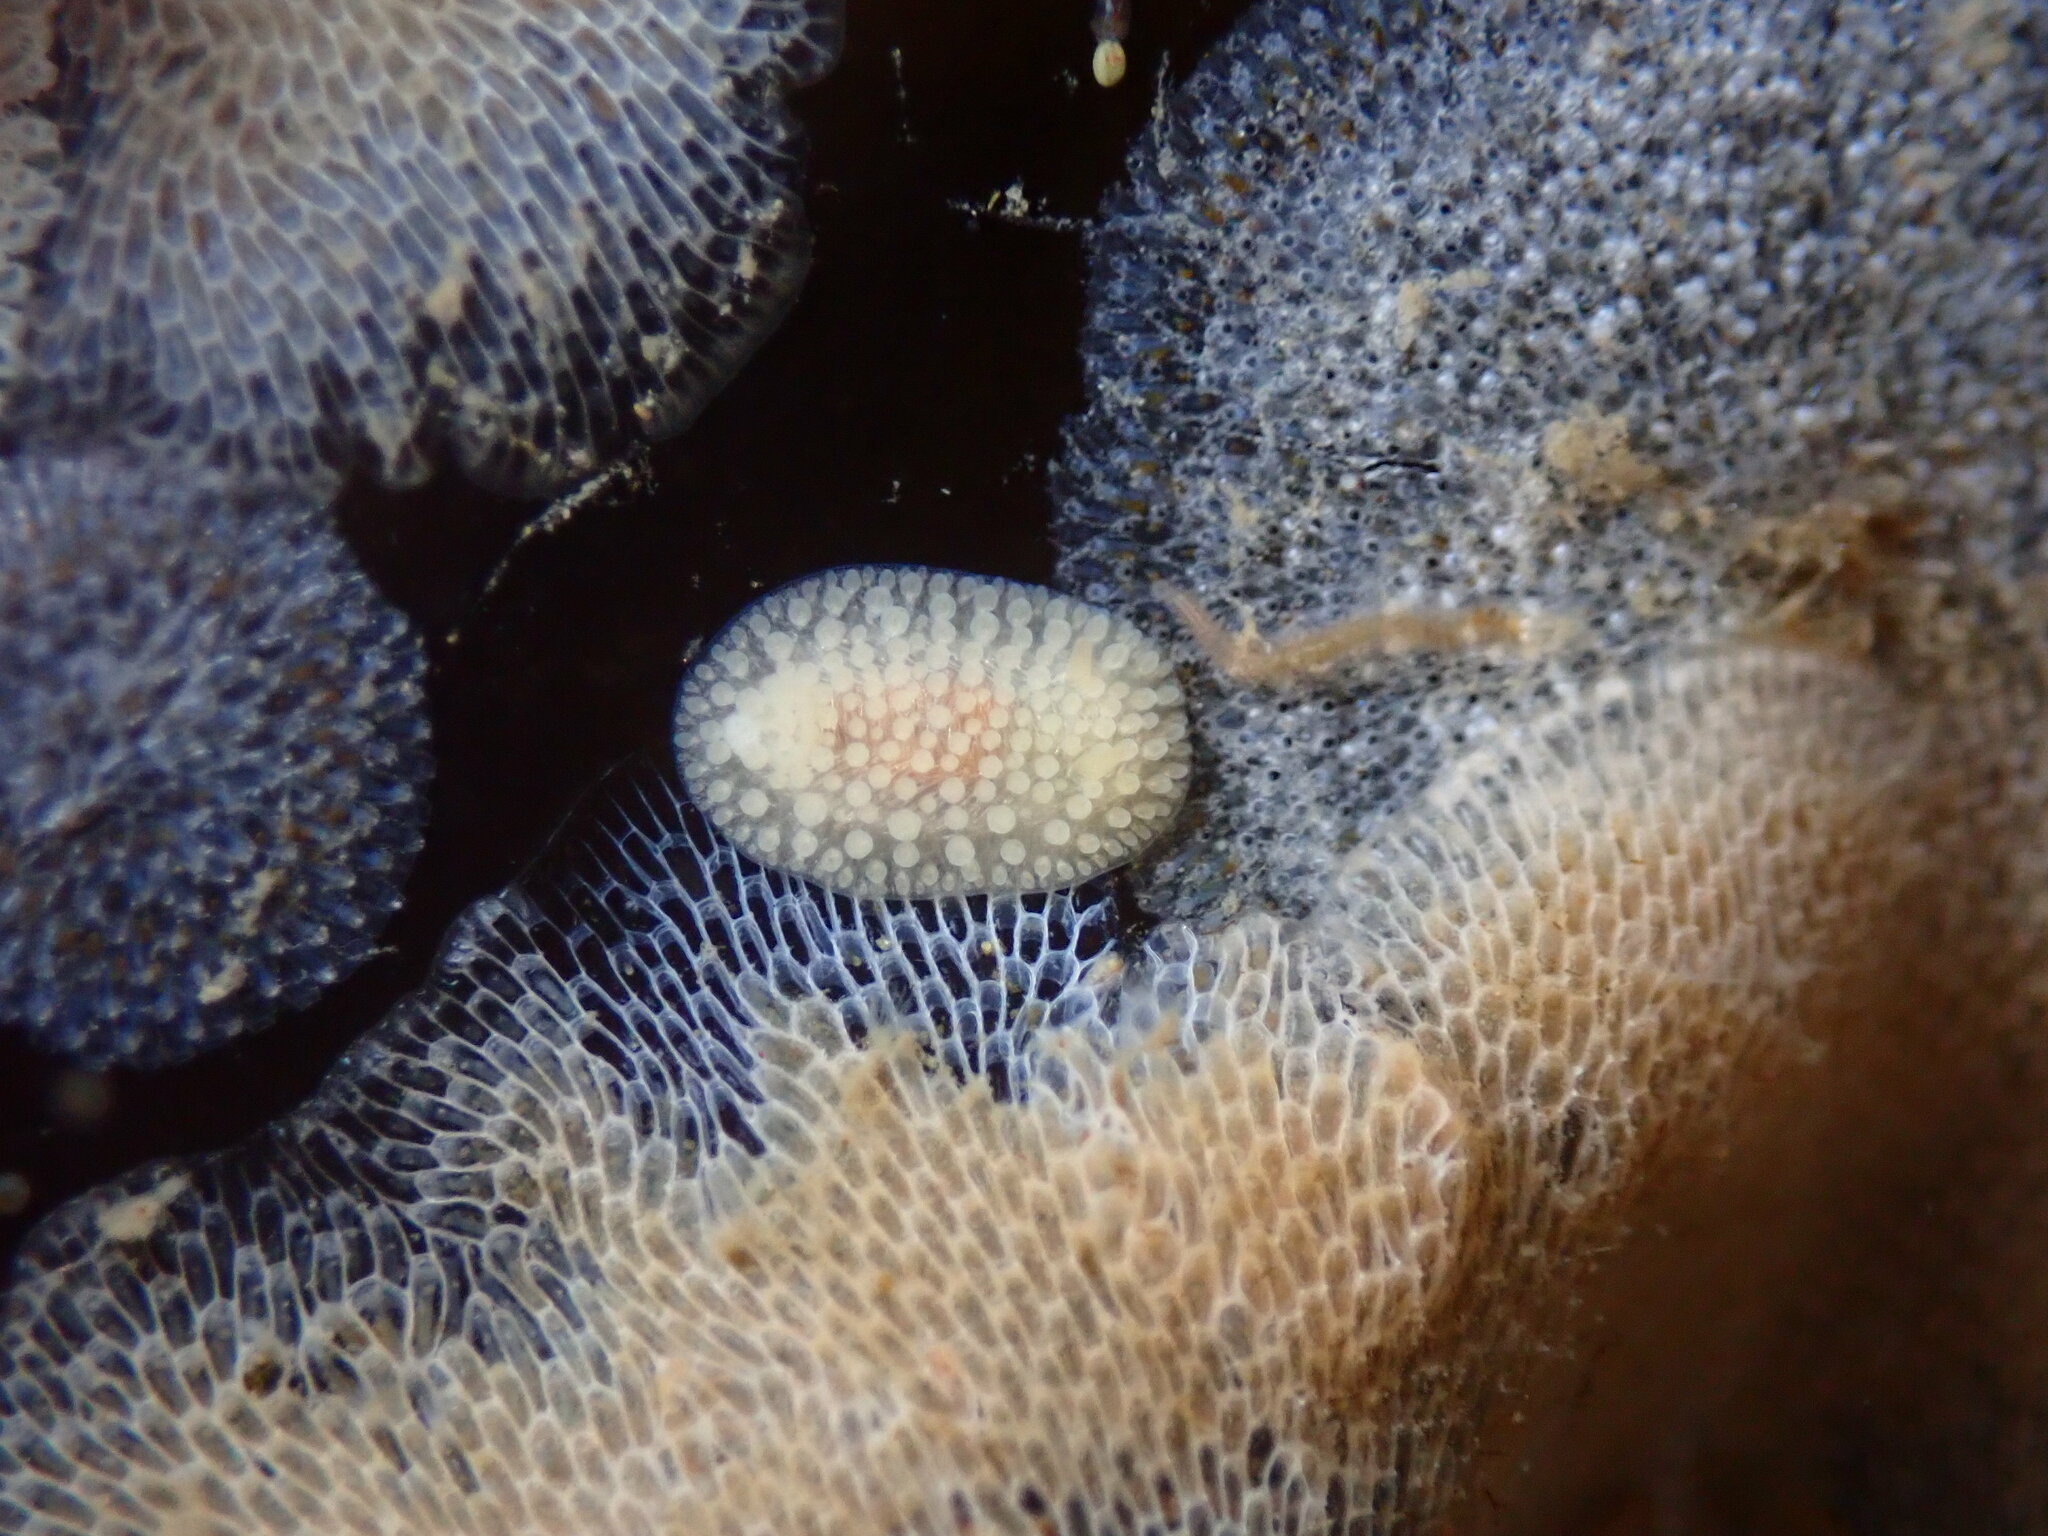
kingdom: Animalia
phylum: Mollusca
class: Gastropoda
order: Nudibranchia
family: Onchidorididae
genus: Atalodoris
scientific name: Atalodoris jannae
